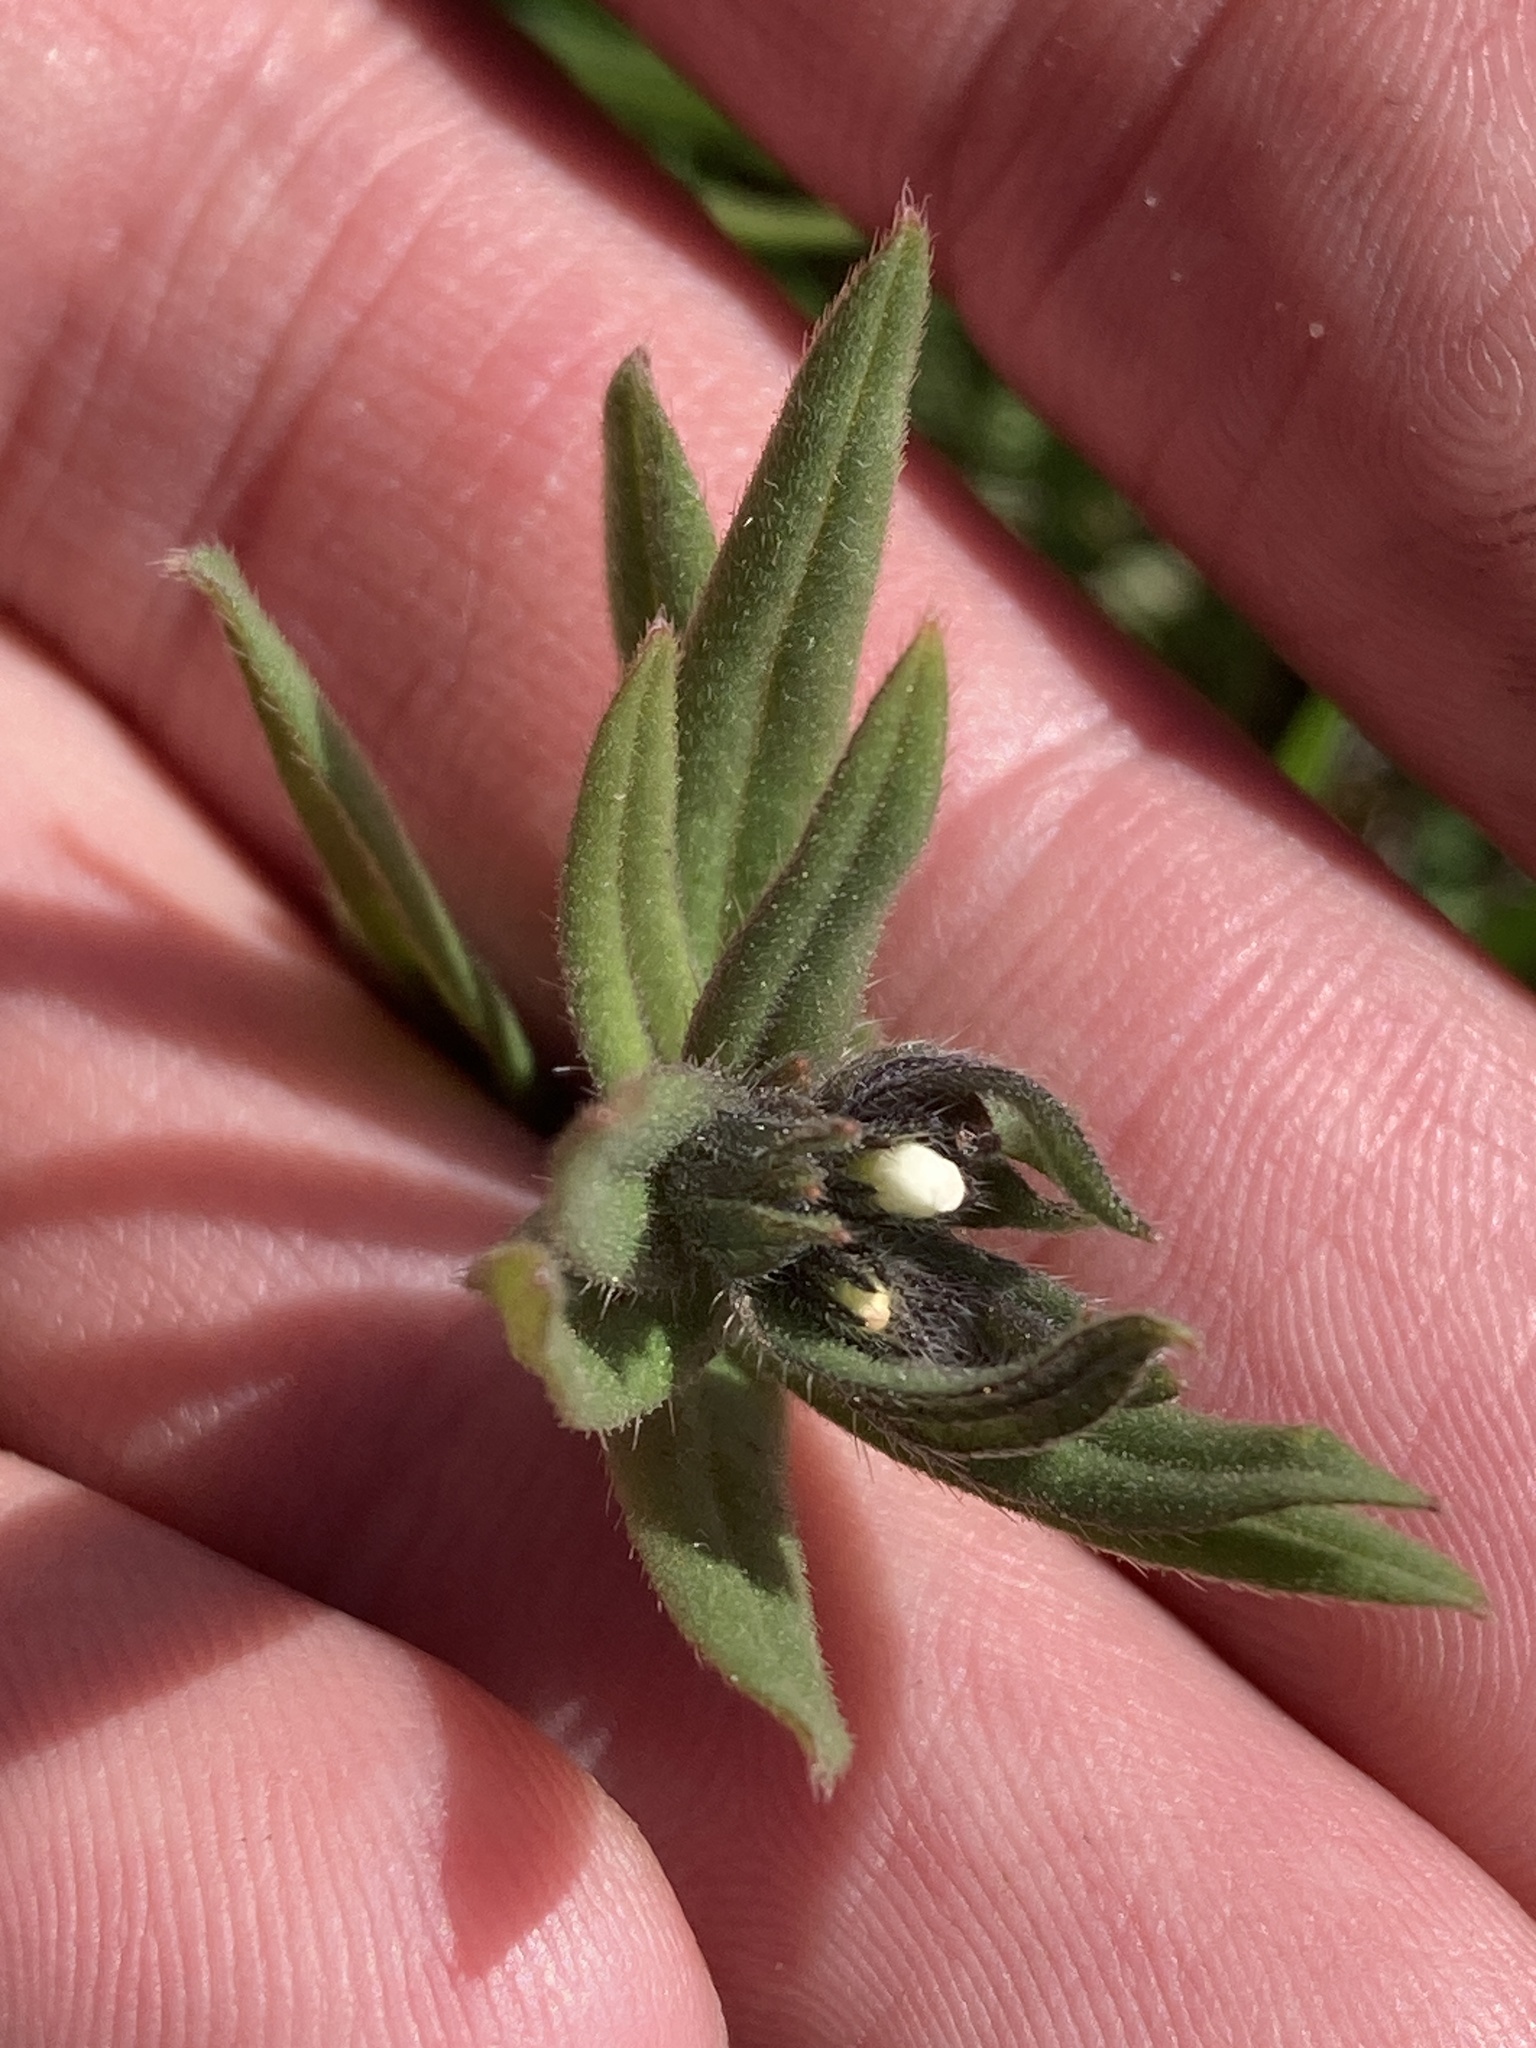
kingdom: Plantae
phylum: Tracheophyta
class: Magnoliopsida
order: Boraginales
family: Boraginaceae
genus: Buglossoides
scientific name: Buglossoides arvensis
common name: Corn gromwell
